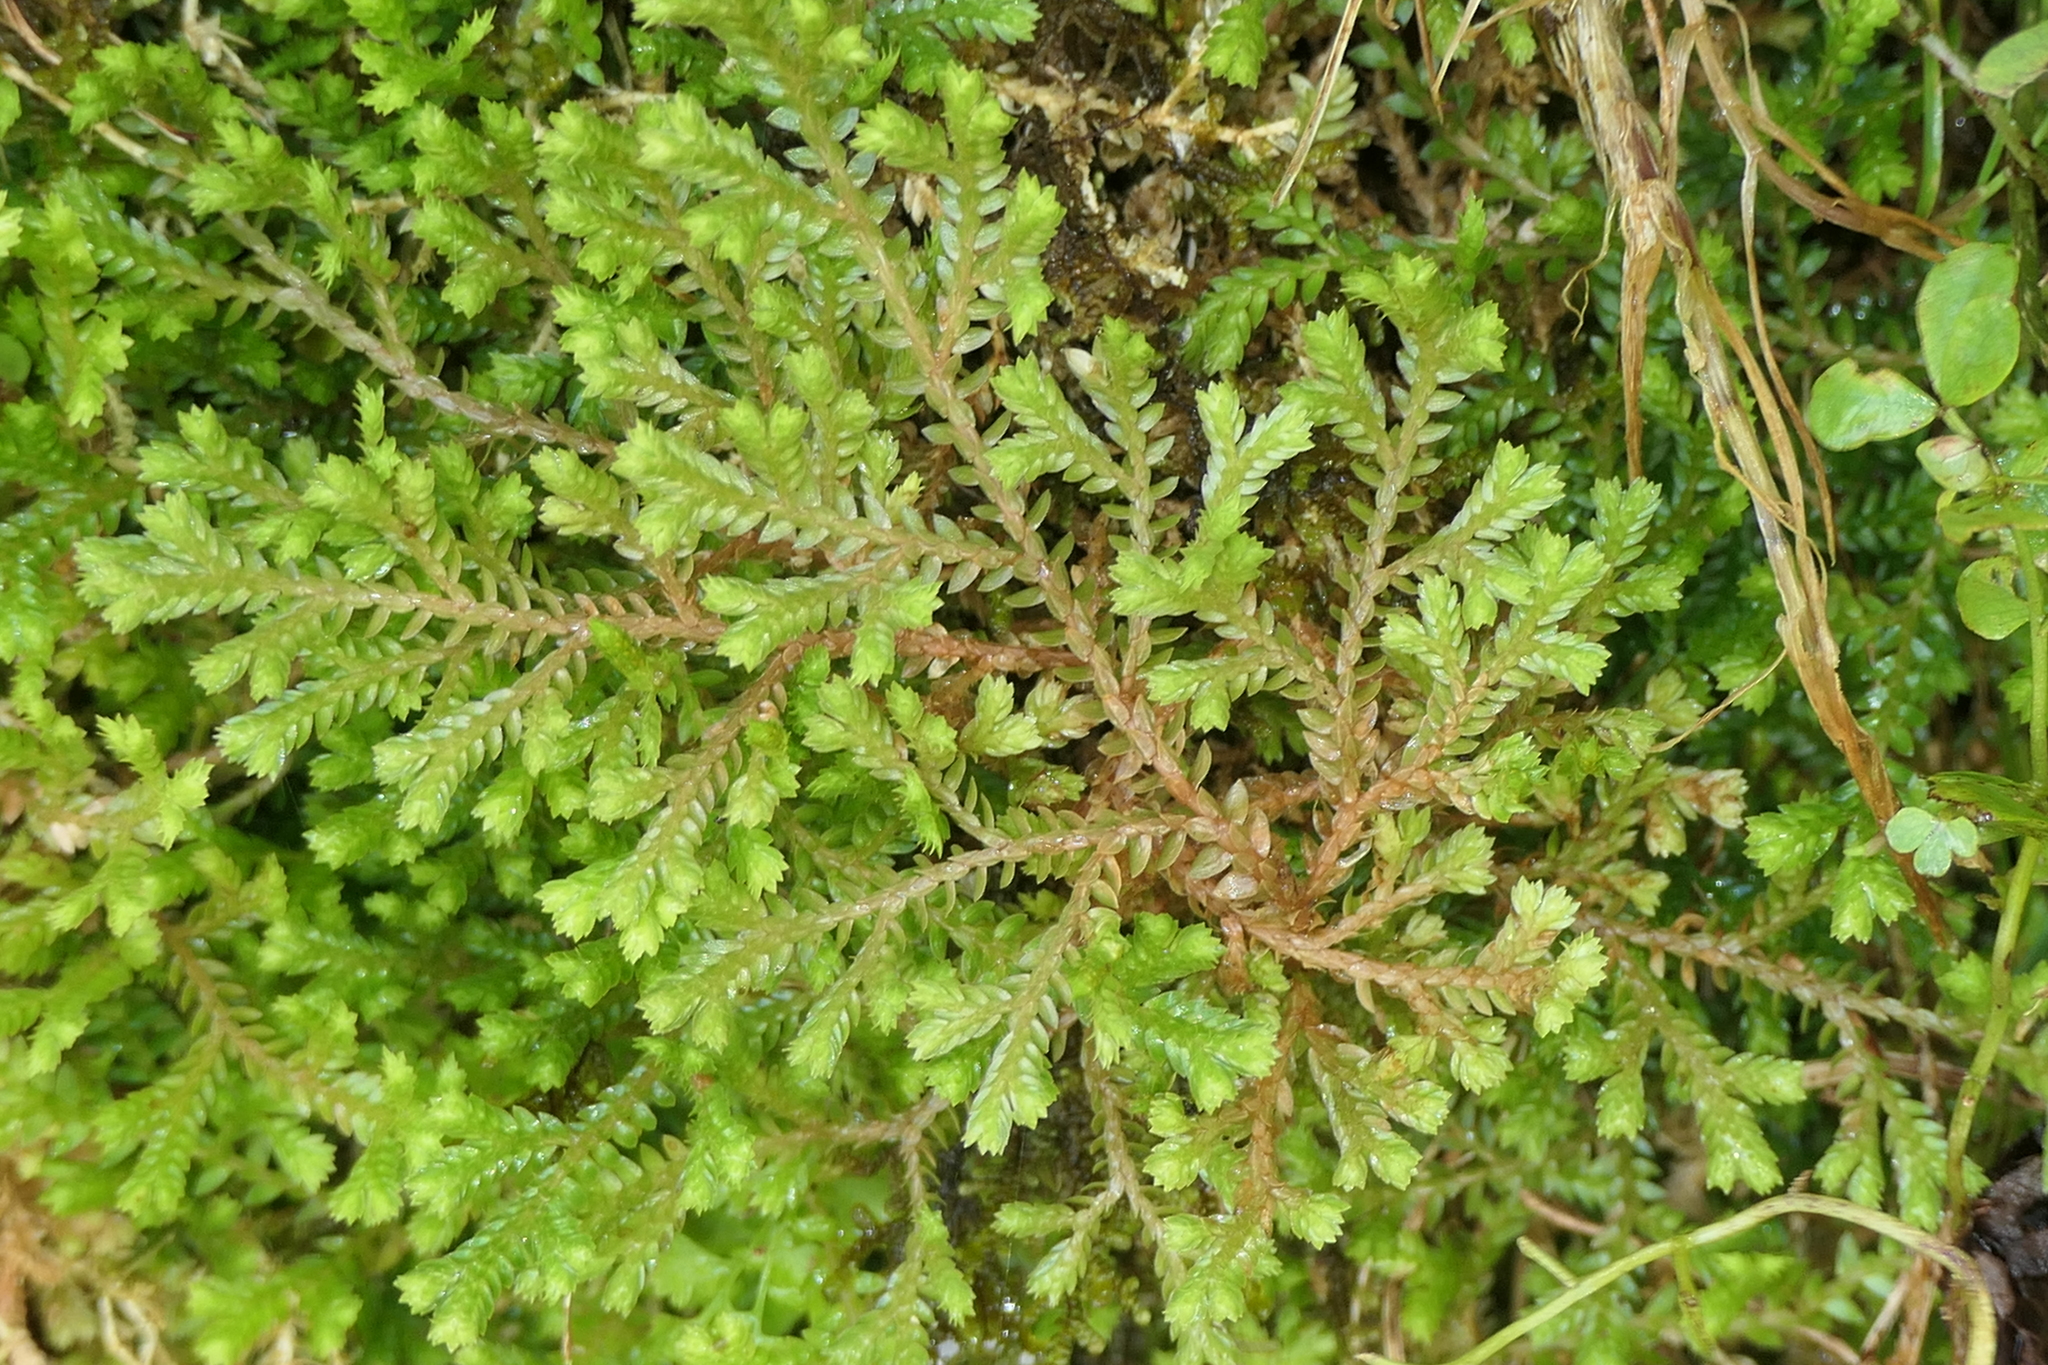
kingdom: Plantae
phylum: Tracheophyta
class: Lycopodiopsida
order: Selaginellales
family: Selaginellaceae
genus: Selaginella
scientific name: Selaginella kraussiana
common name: Krauss' spikemoss
